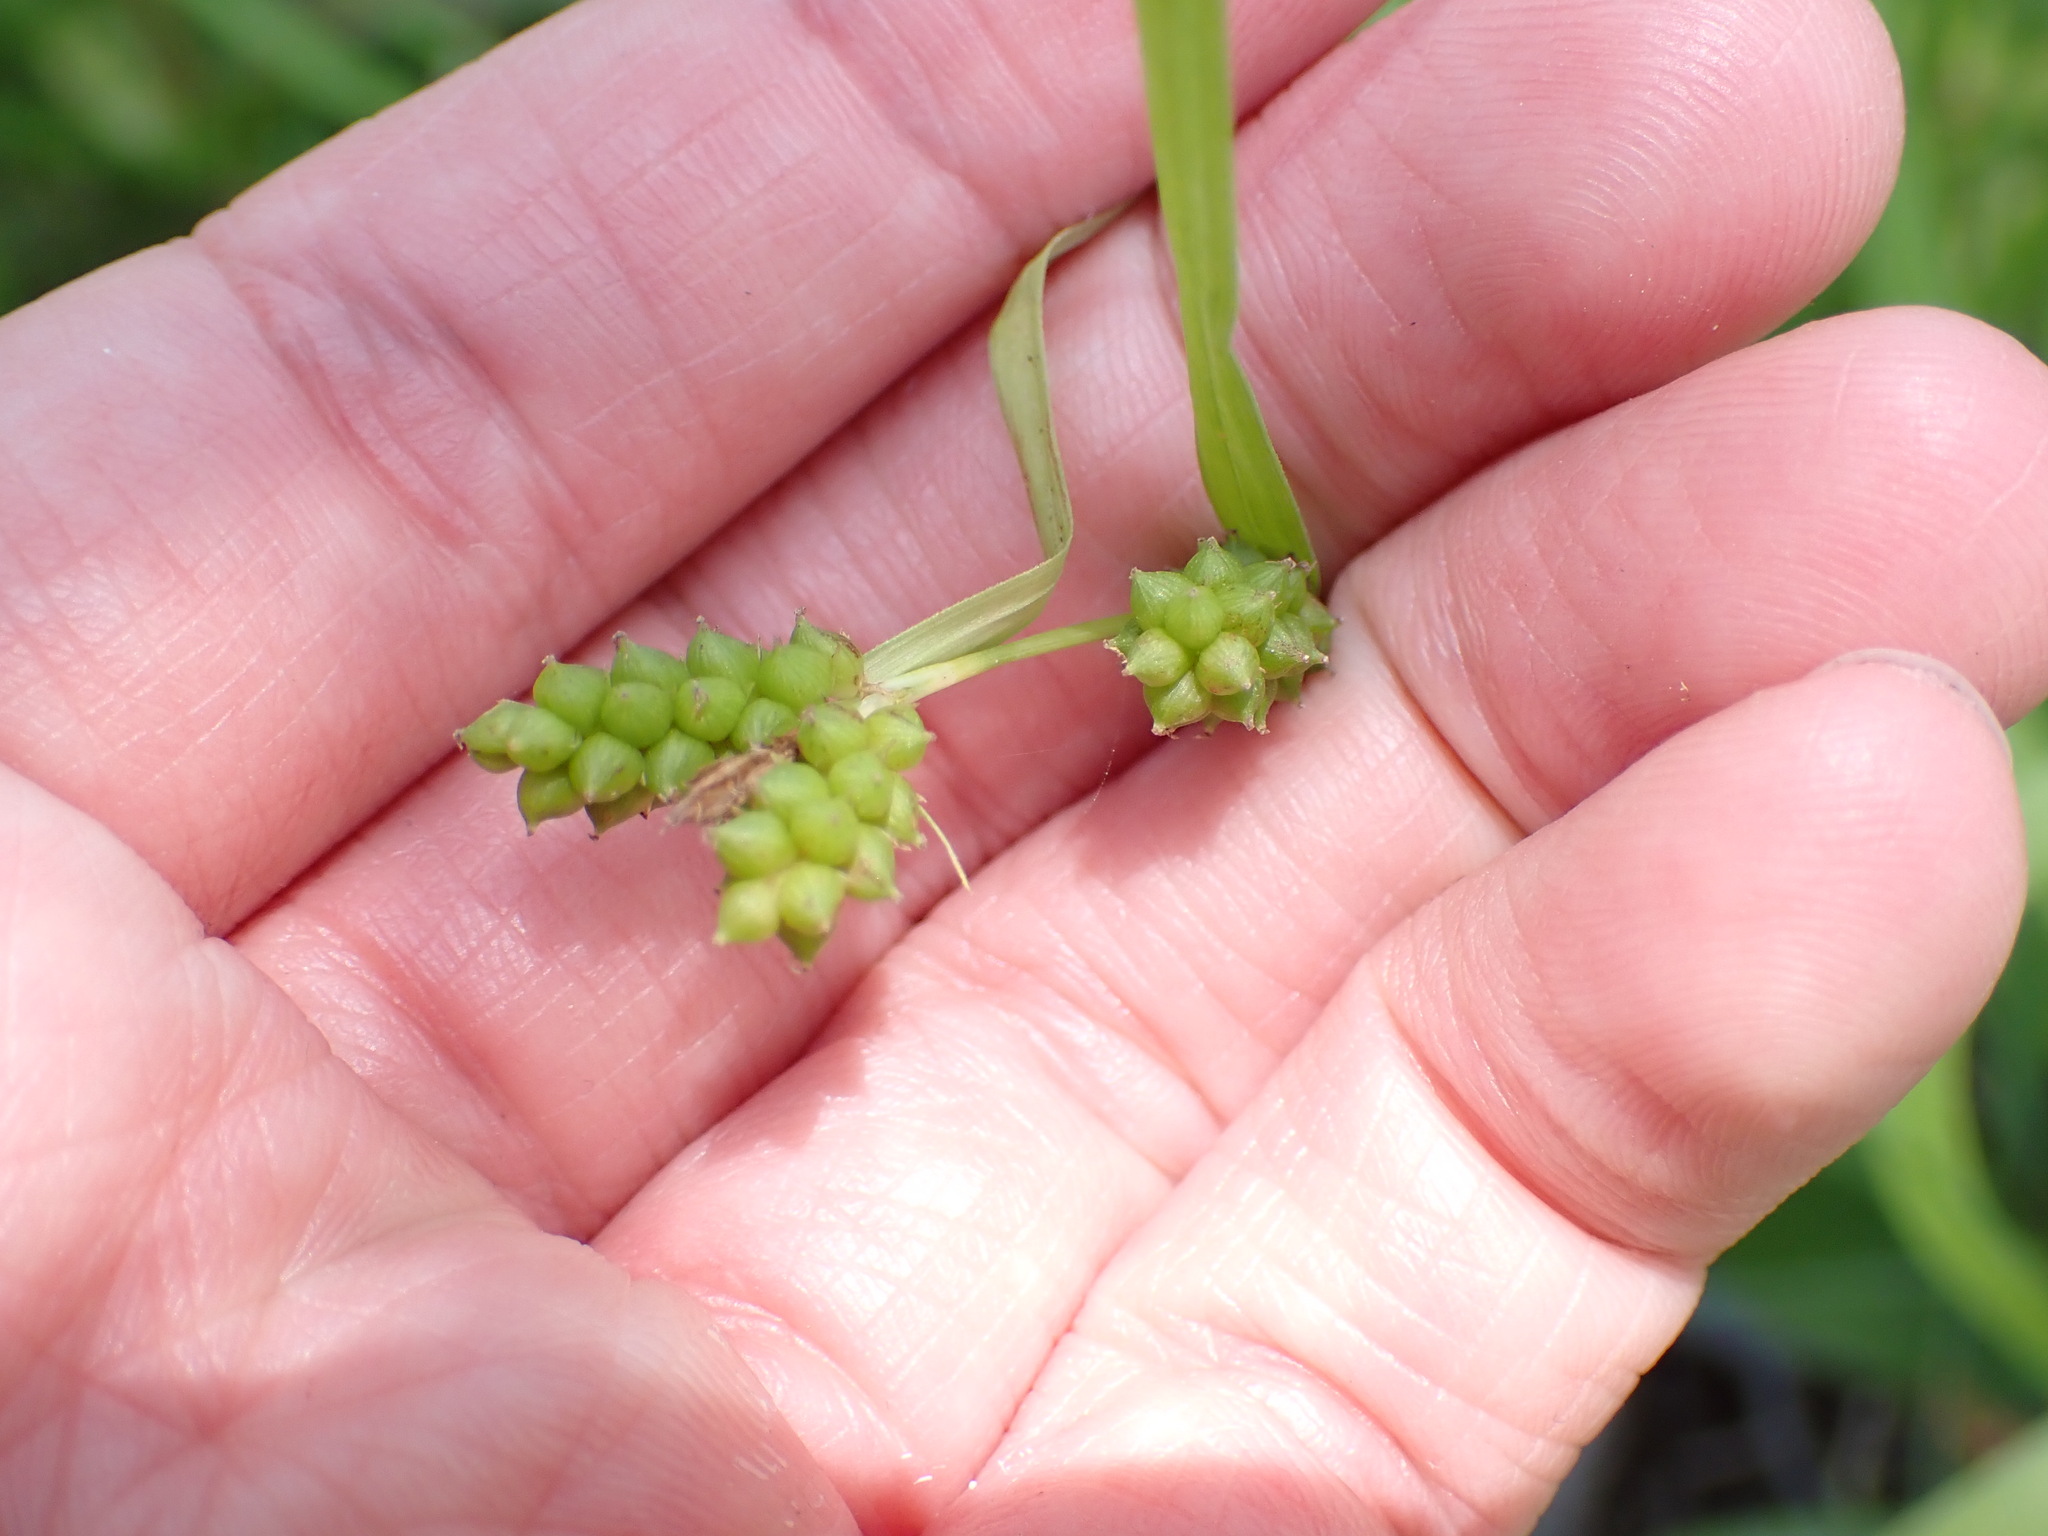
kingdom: Plantae
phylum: Tracheophyta
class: Liliopsida
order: Poales
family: Cyperaceae
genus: Carex
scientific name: Carex granularis
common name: Granular sedge
